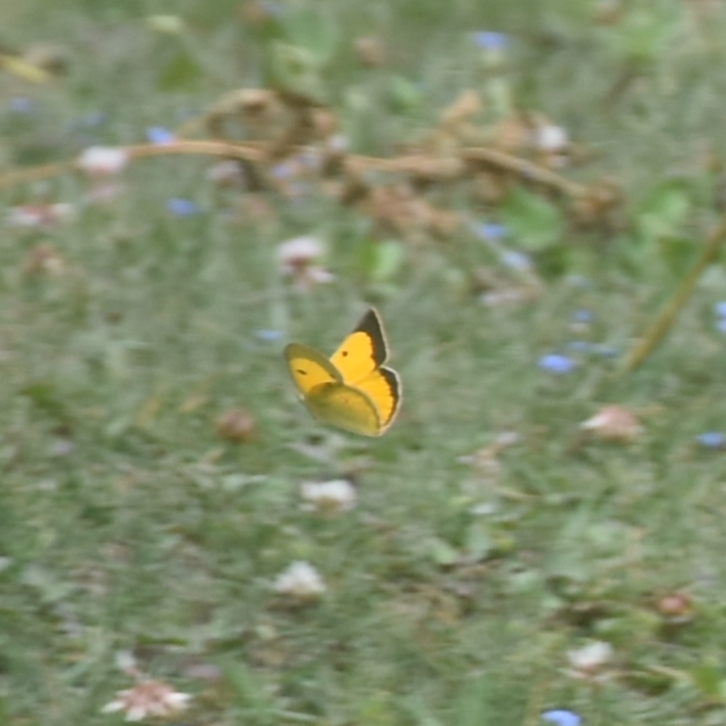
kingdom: Animalia
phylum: Arthropoda
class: Insecta
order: Lepidoptera
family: Pieridae
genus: Colias
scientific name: Colias fieldii
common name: Dark clouded yellow
